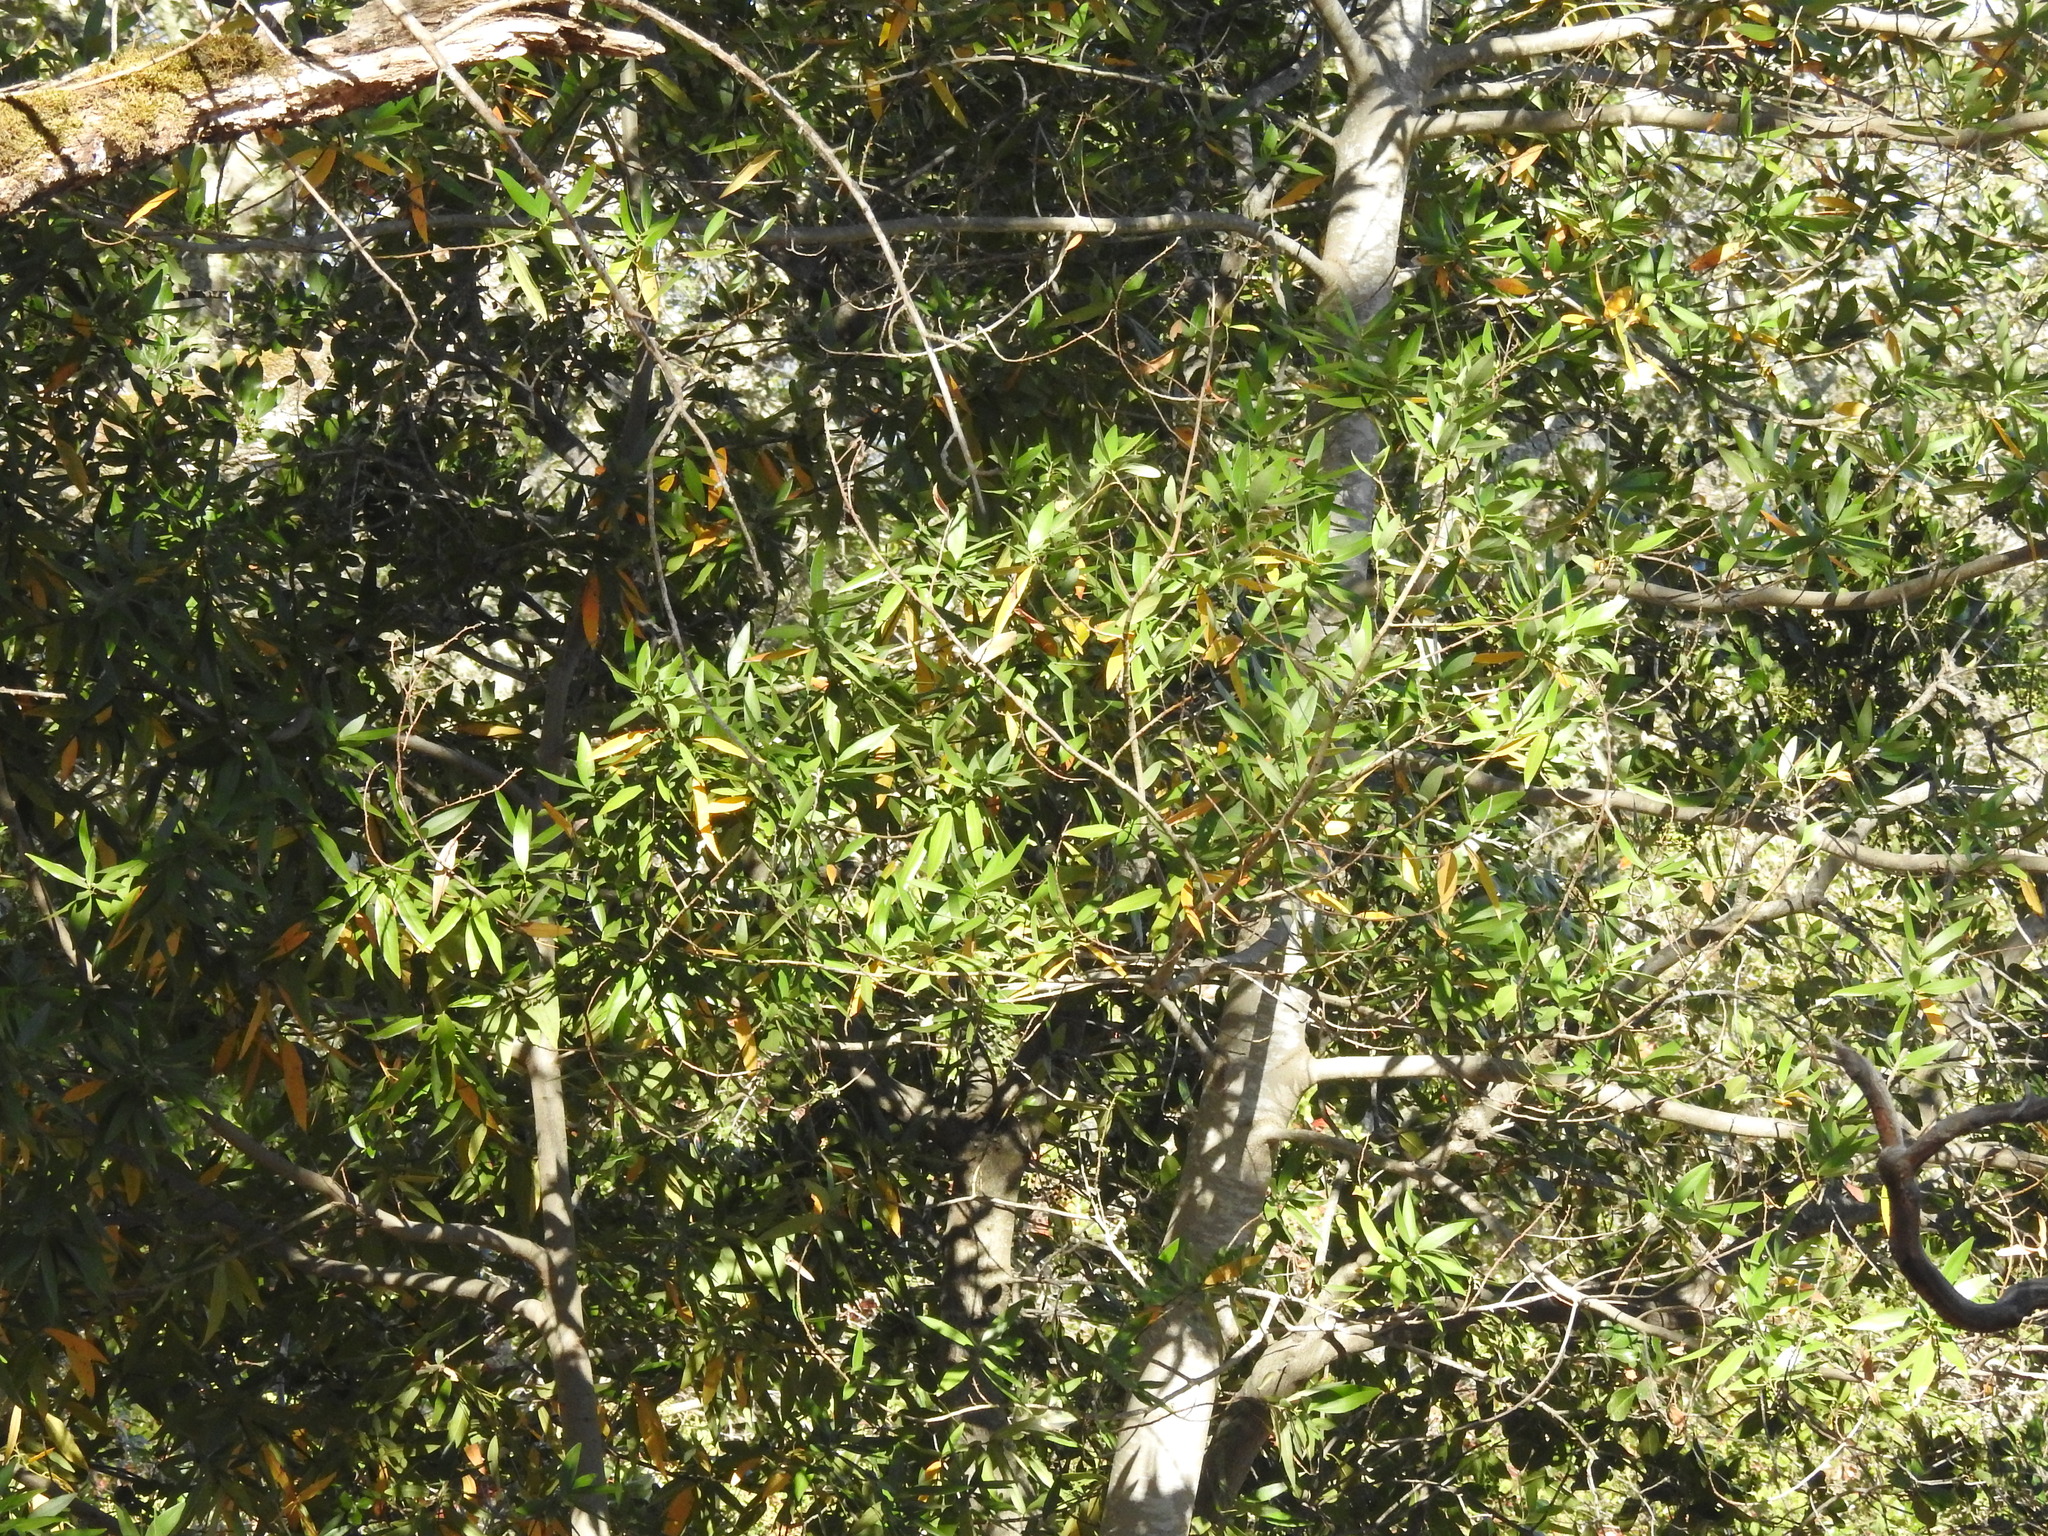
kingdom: Plantae
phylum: Tracheophyta
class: Magnoliopsida
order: Laurales
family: Lauraceae
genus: Umbellularia
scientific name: Umbellularia californica
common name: California bay
